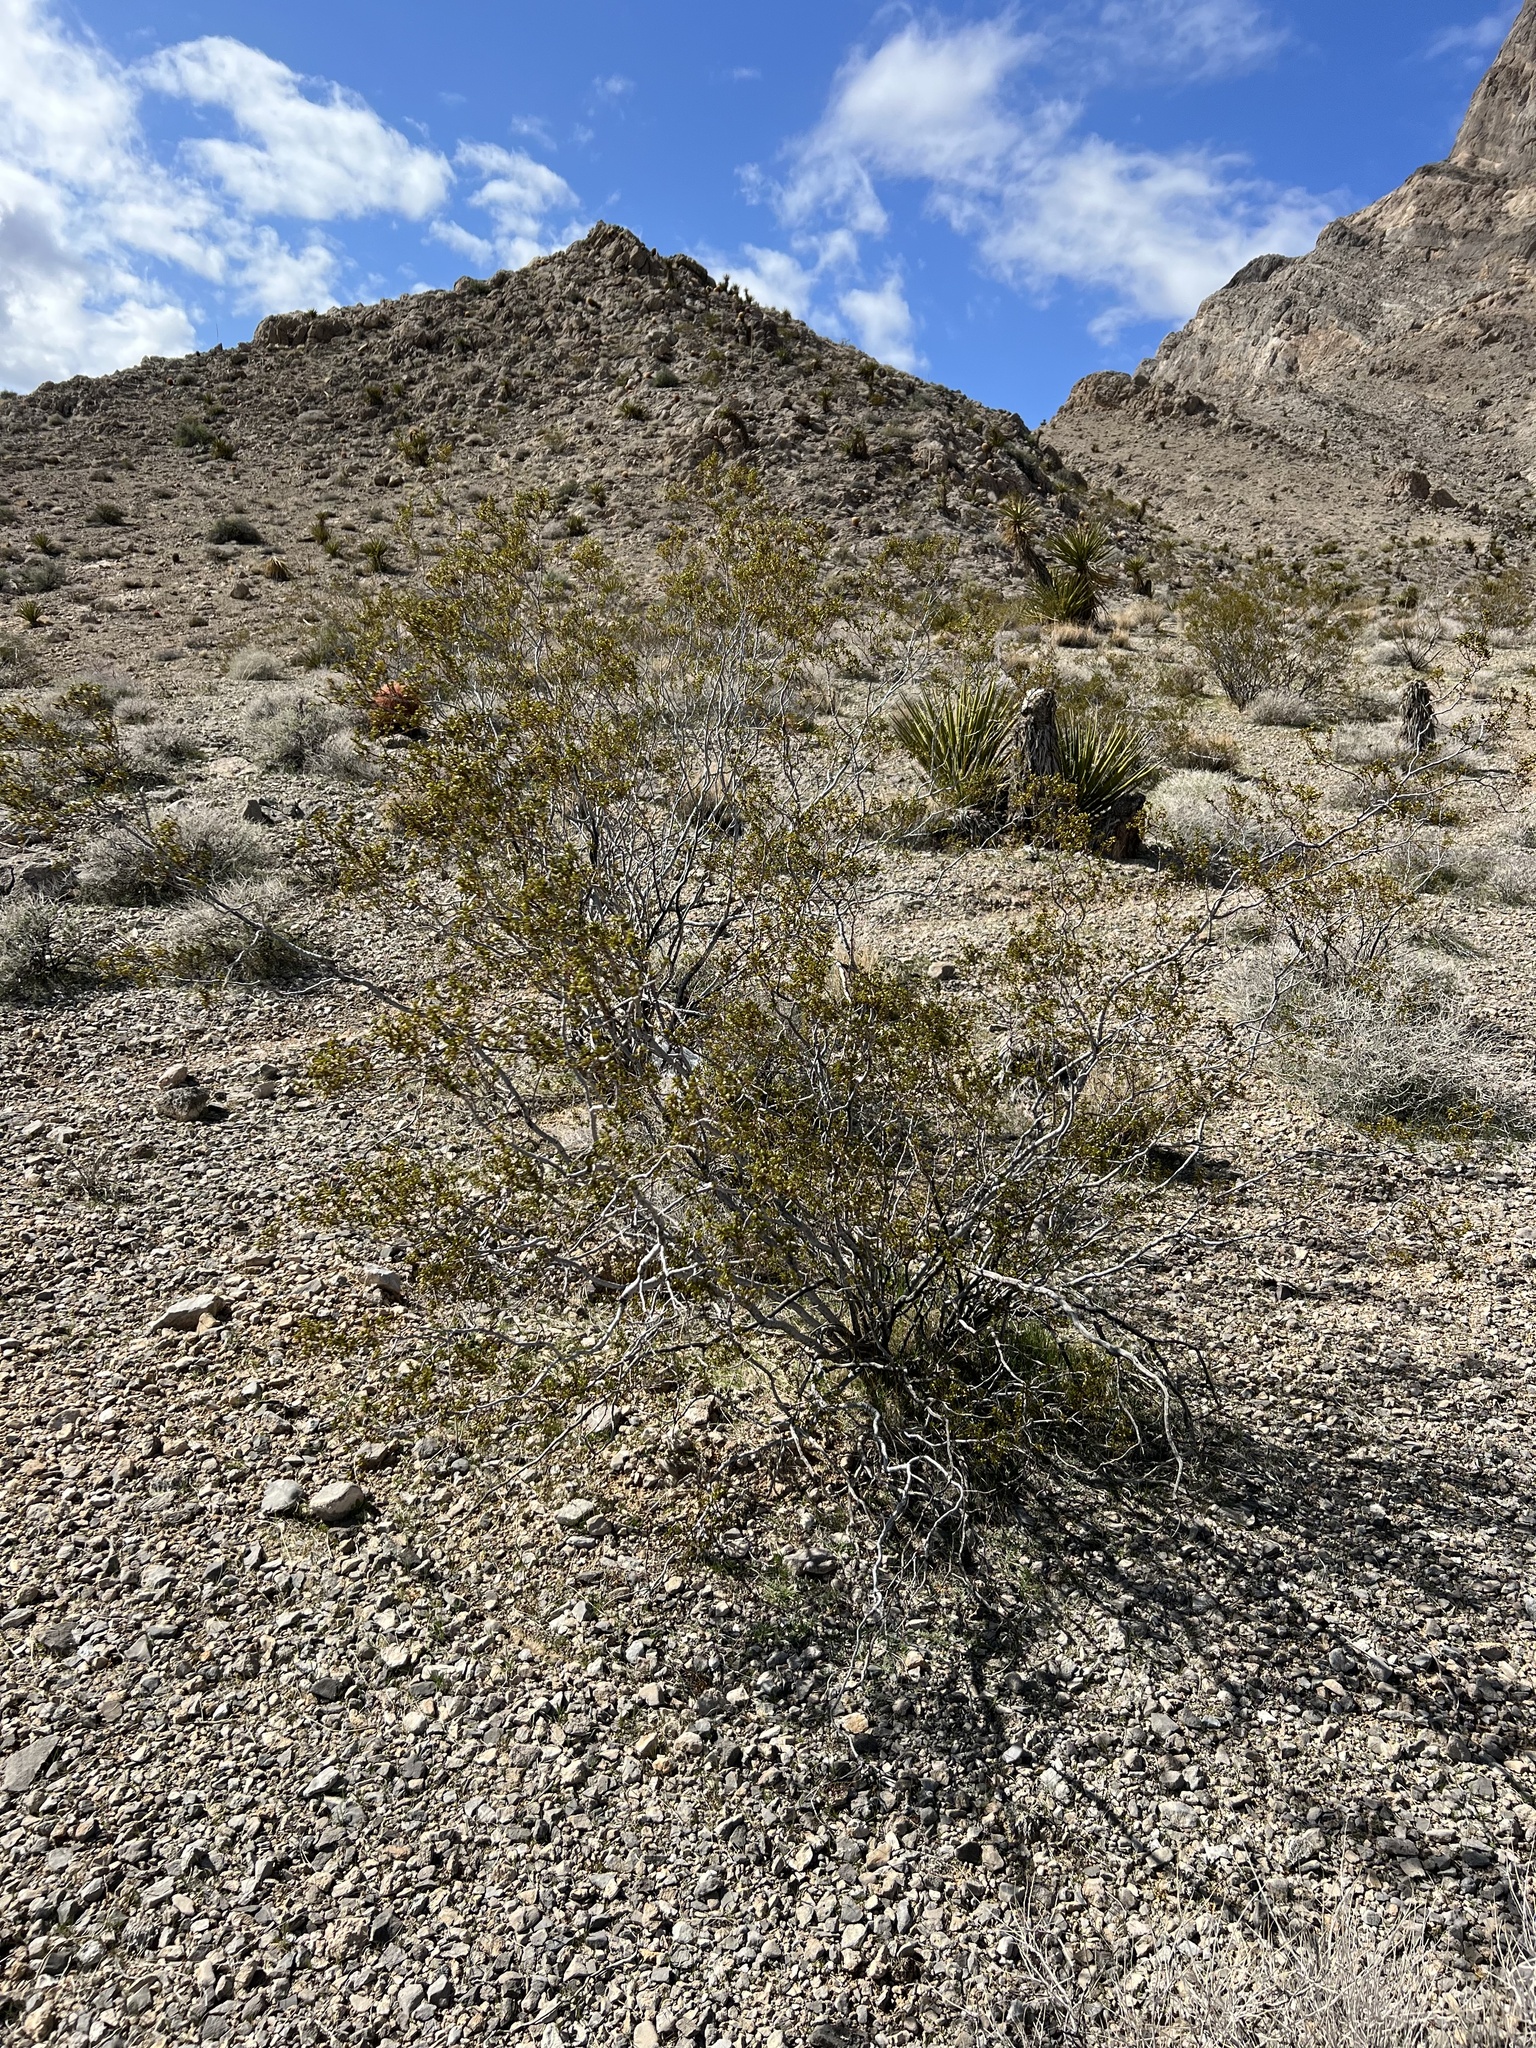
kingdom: Plantae
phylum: Tracheophyta
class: Magnoliopsida
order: Zygophyllales
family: Zygophyllaceae
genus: Larrea
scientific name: Larrea tridentata
